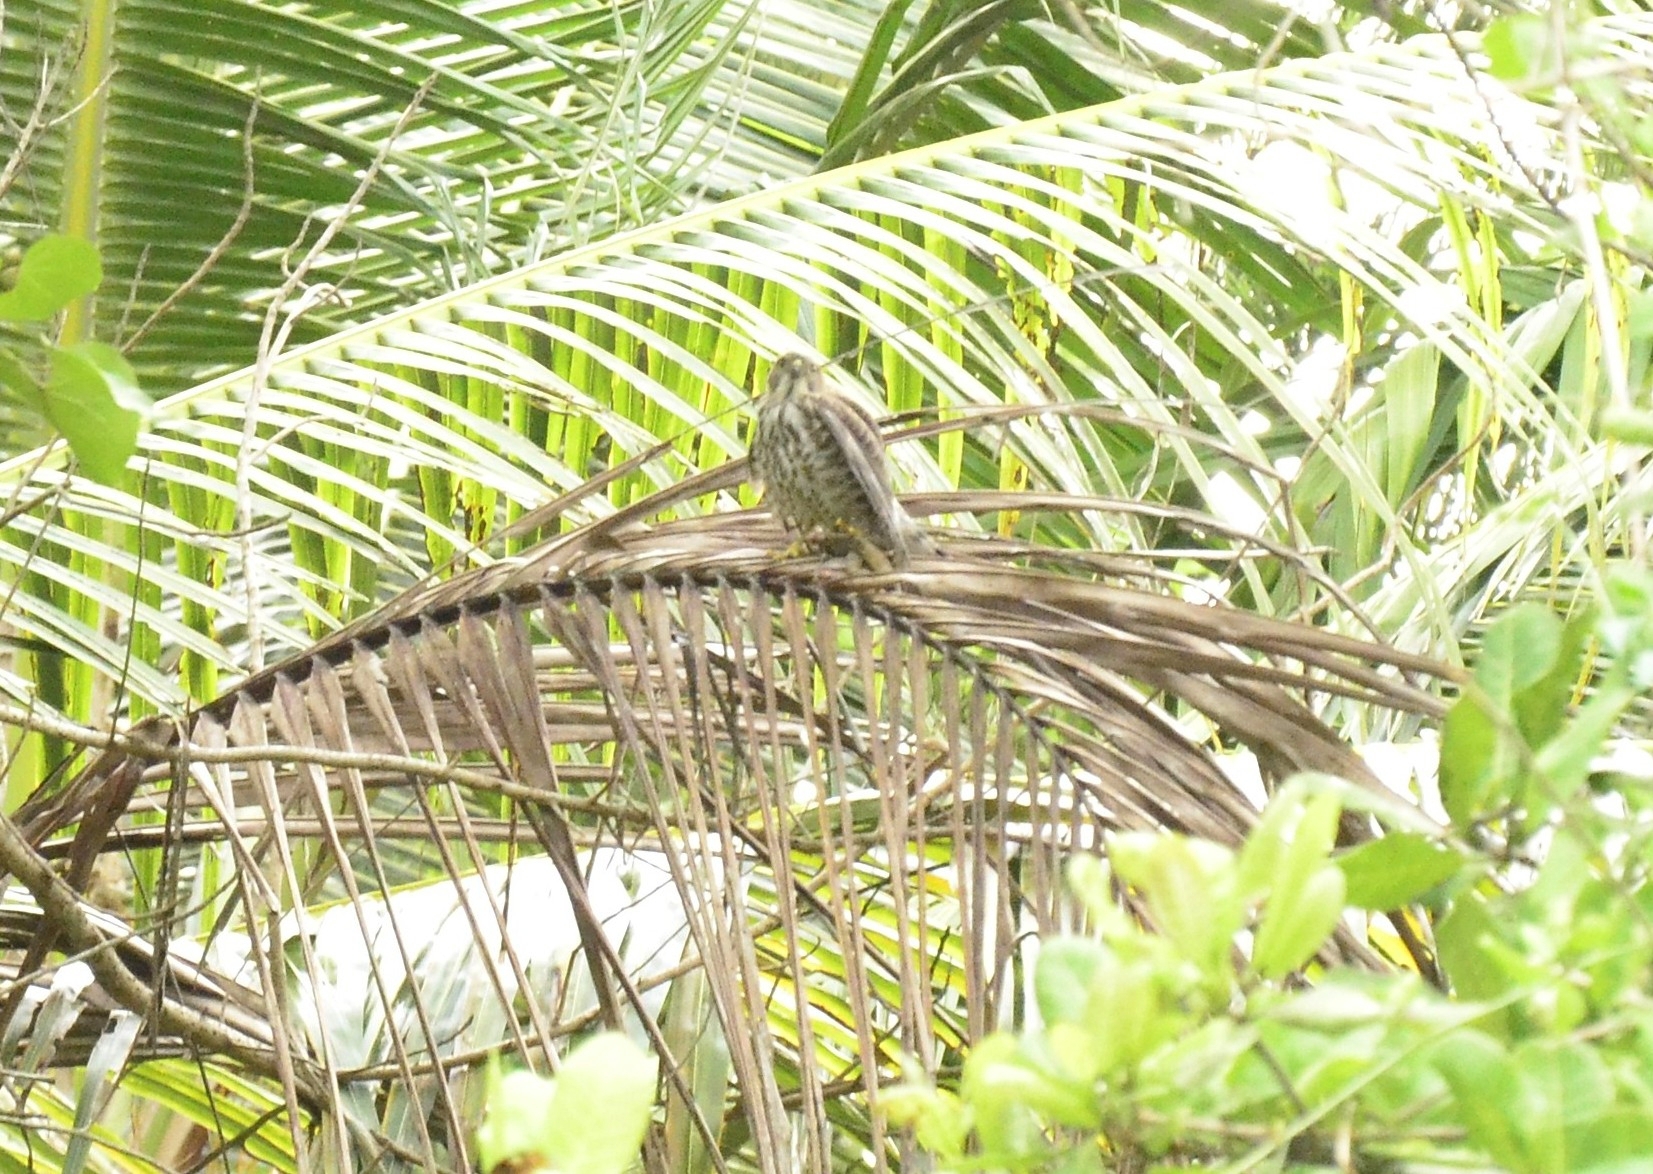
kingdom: Animalia
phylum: Chordata
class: Aves
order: Accipitriformes
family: Accipitridae
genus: Accipiter
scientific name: Accipiter badius
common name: Shikra
